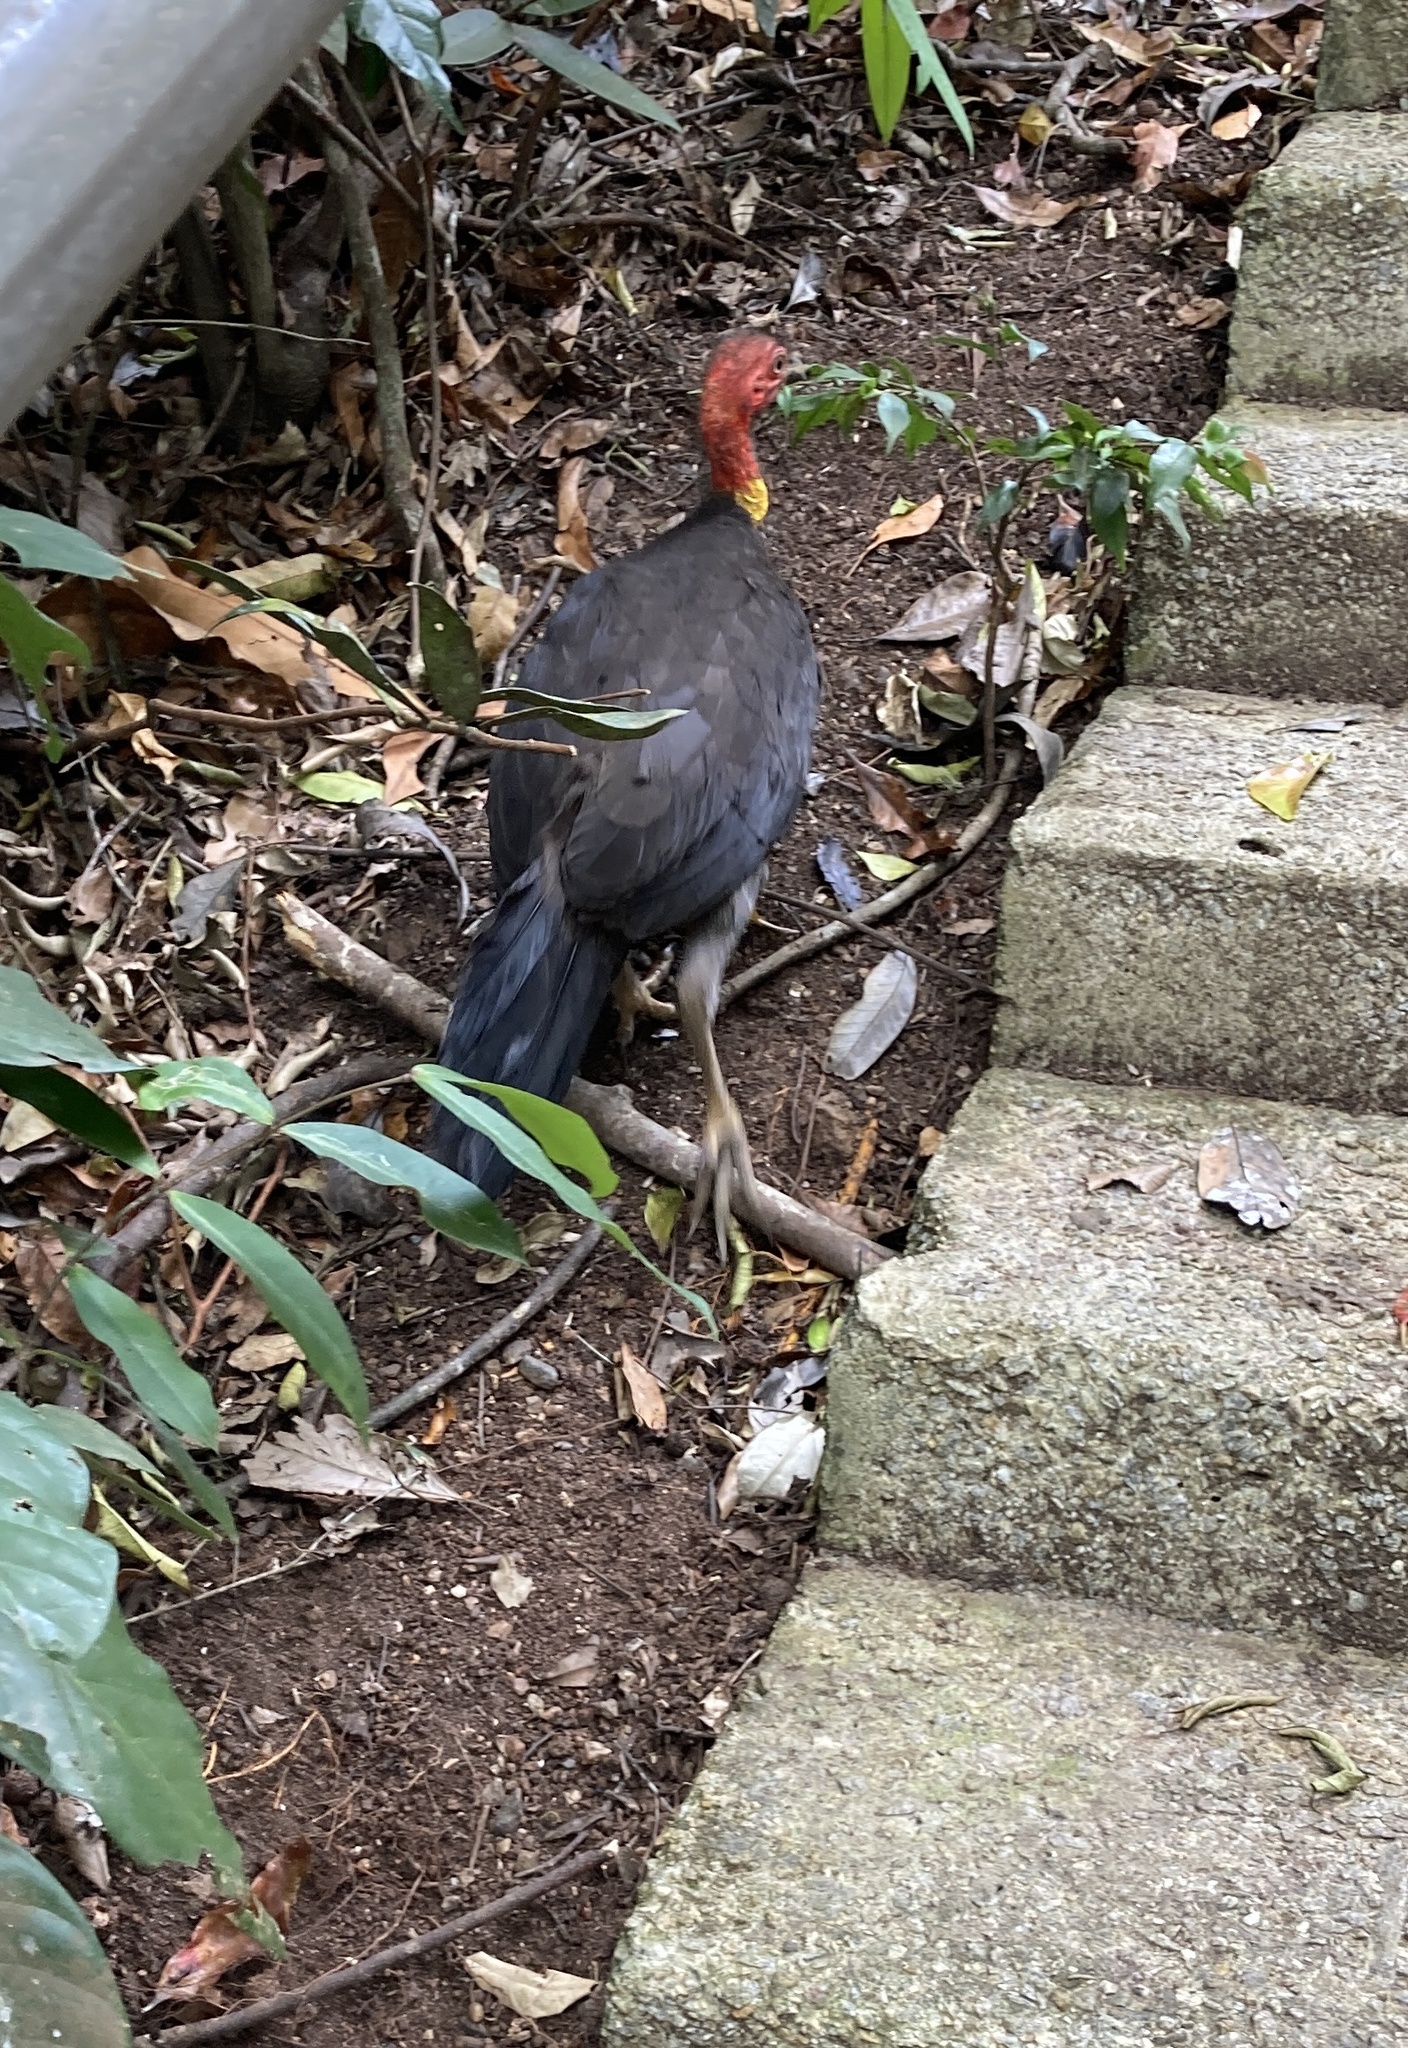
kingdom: Animalia
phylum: Chordata
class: Aves
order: Galliformes
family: Megapodiidae
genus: Alectura
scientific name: Alectura lathami
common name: Australian brushturkey
